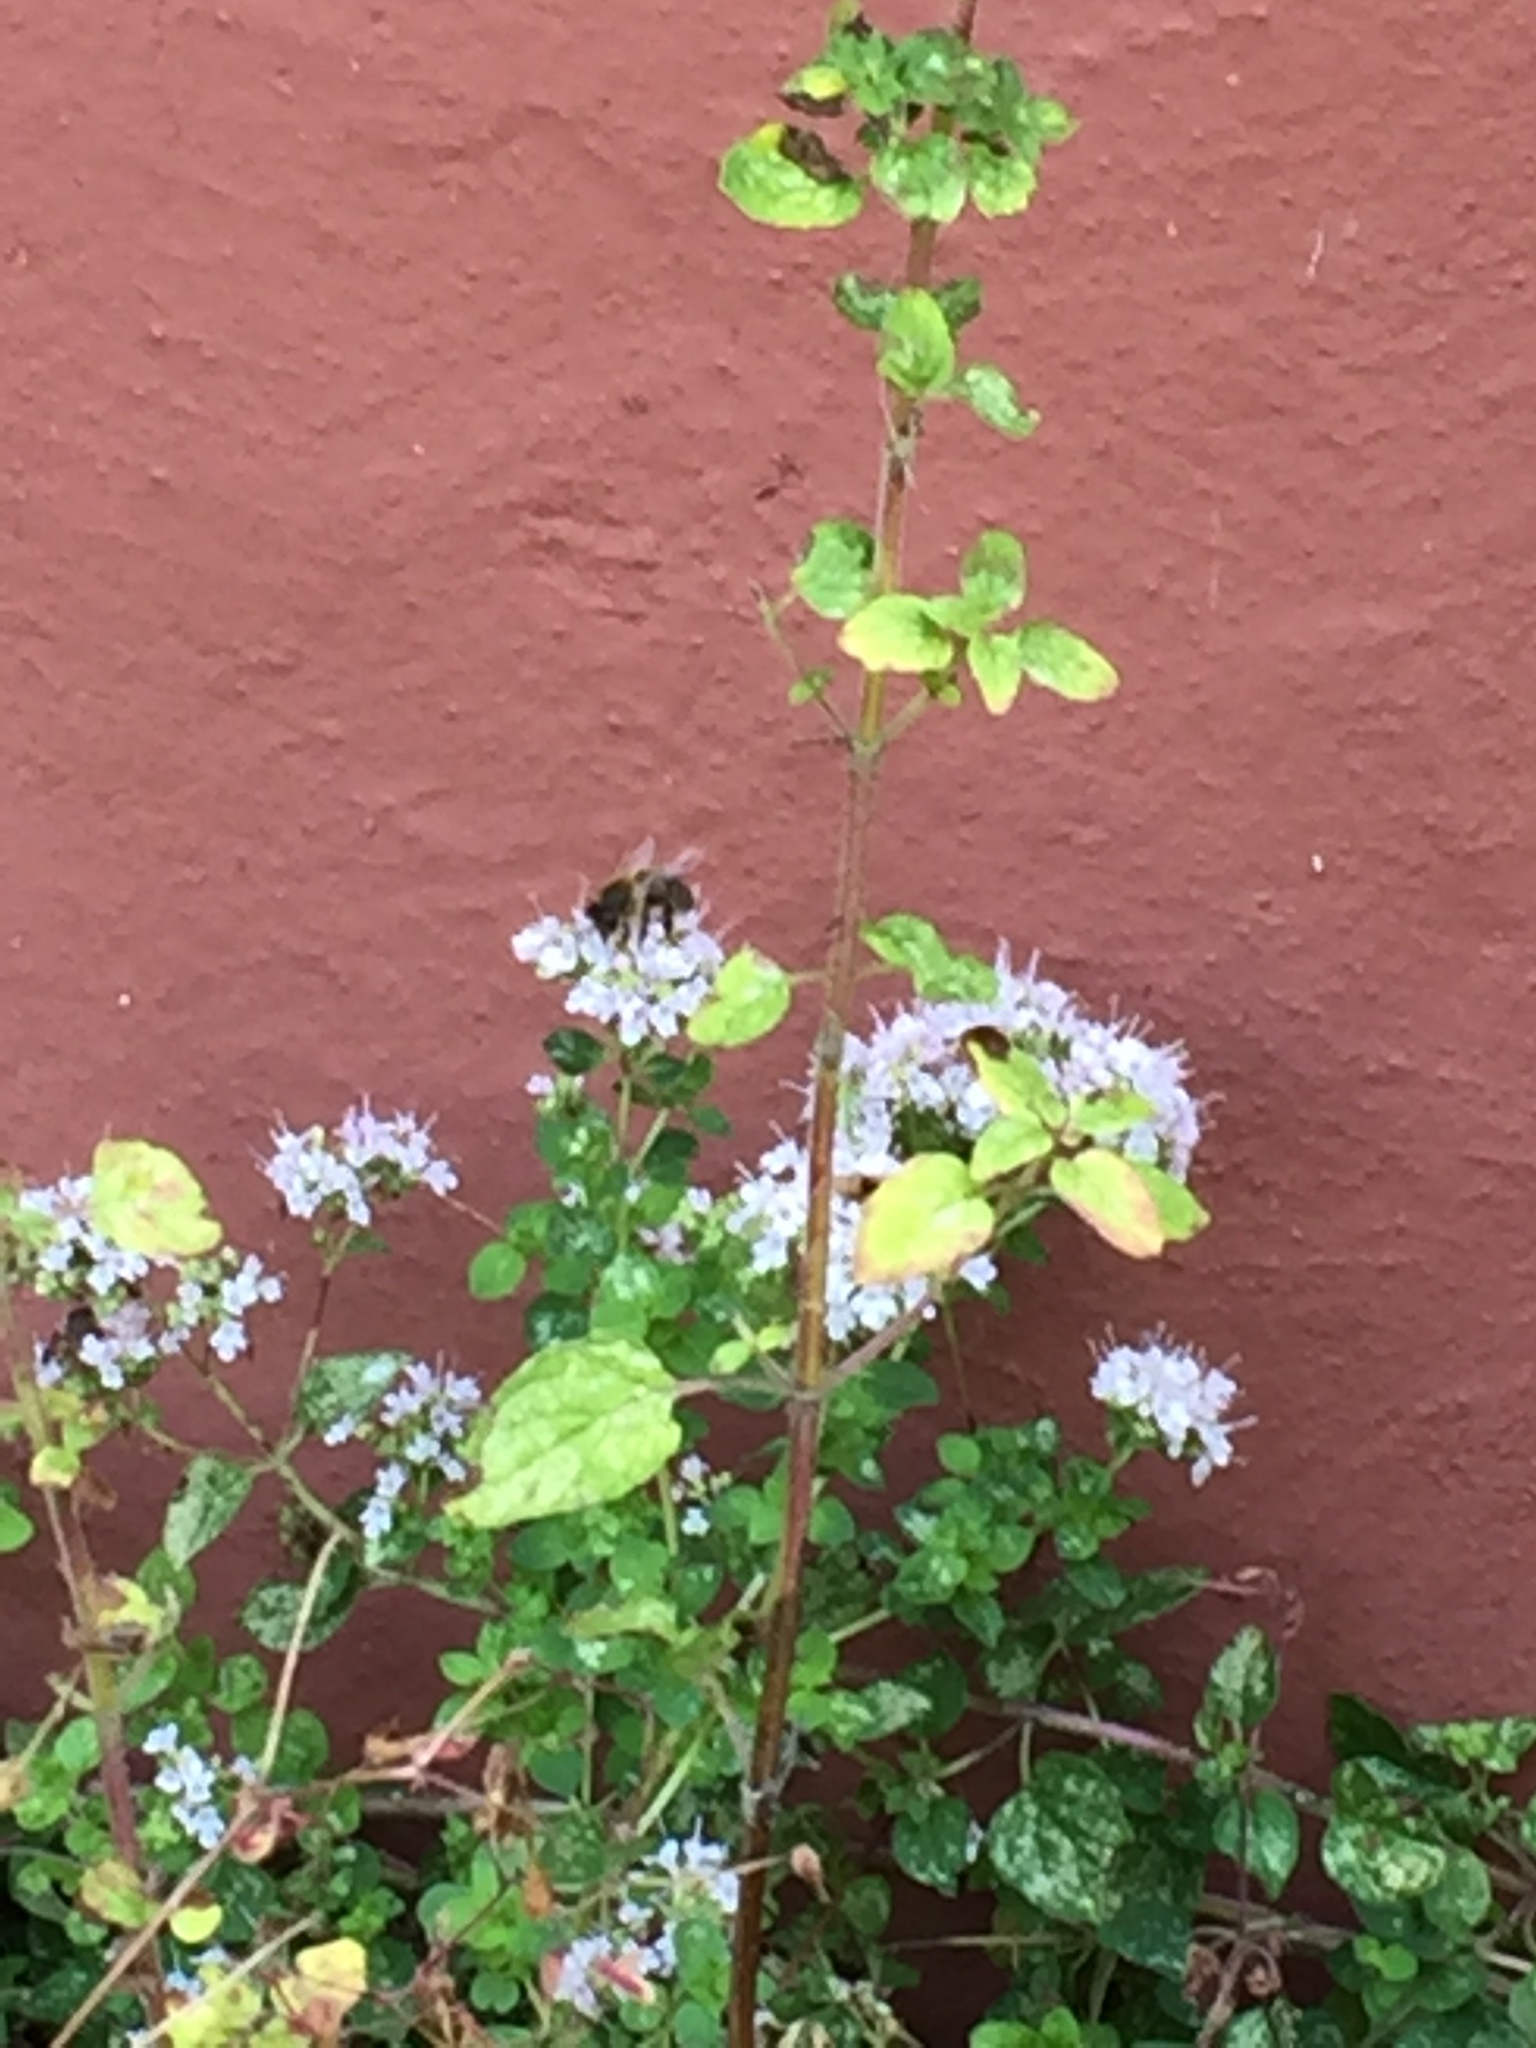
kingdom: Animalia
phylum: Arthropoda
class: Insecta
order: Hymenoptera
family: Apidae
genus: Apis
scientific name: Apis mellifera
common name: Honey bee
